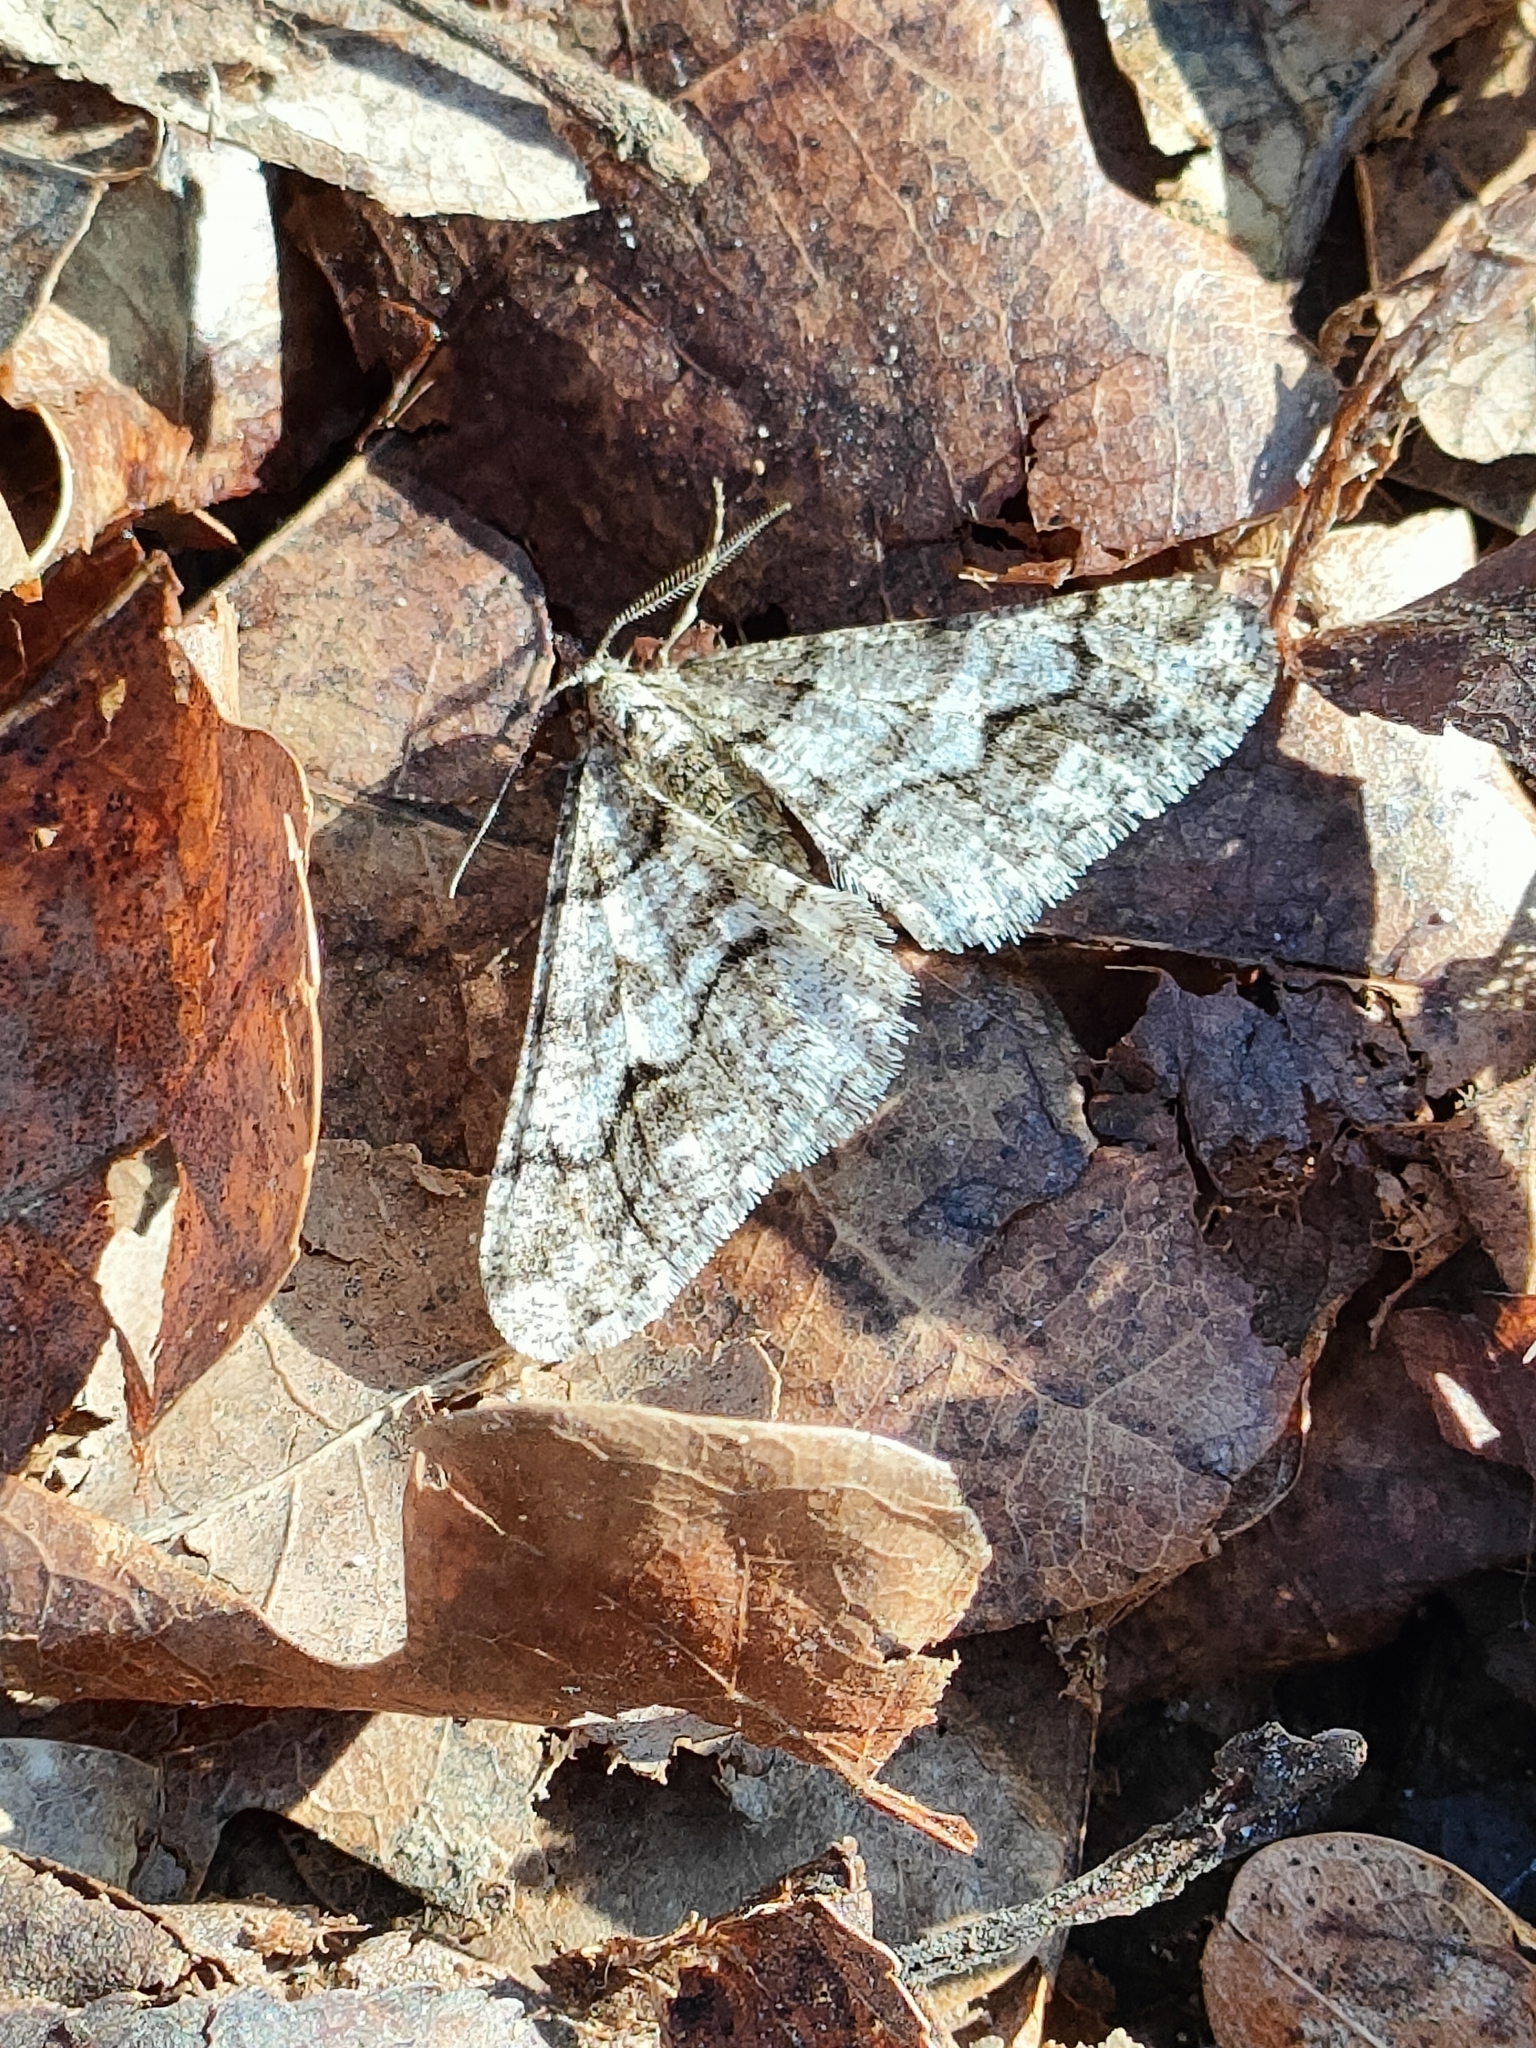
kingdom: Animalia
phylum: Arthropoda
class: Insecta
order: Lepidoptera
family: Geometridae
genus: Agriopis
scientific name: Agriopis leucophaearia
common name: Spring usher
